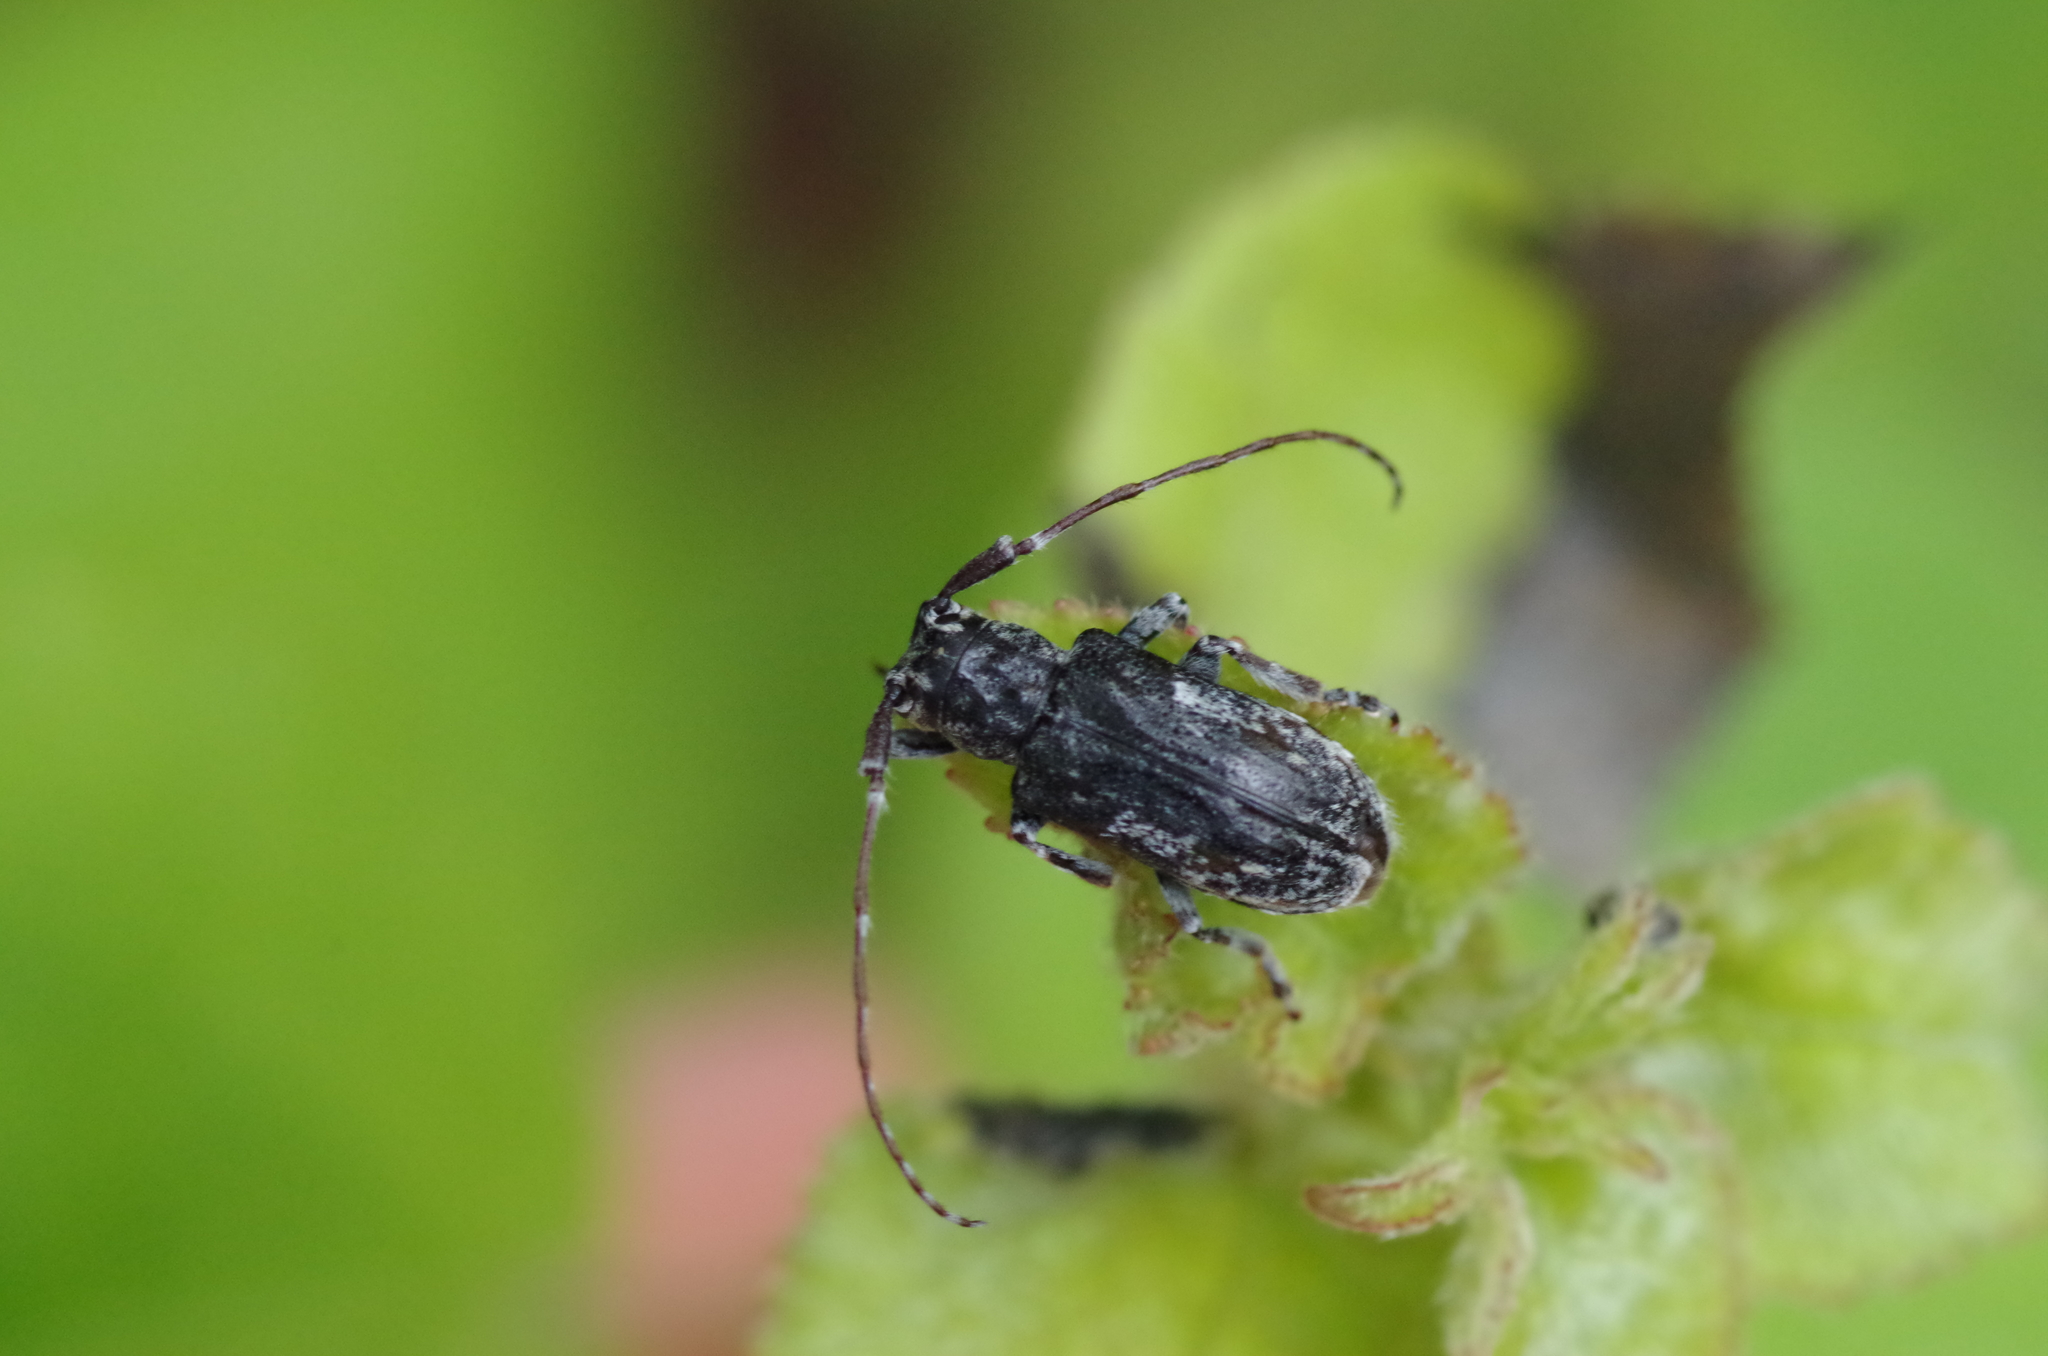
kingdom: Animalia
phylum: Arthropoda
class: Insecta
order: Coleoptera
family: Cerambycidae
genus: Mesosa
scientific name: Mesosa nebulosa
